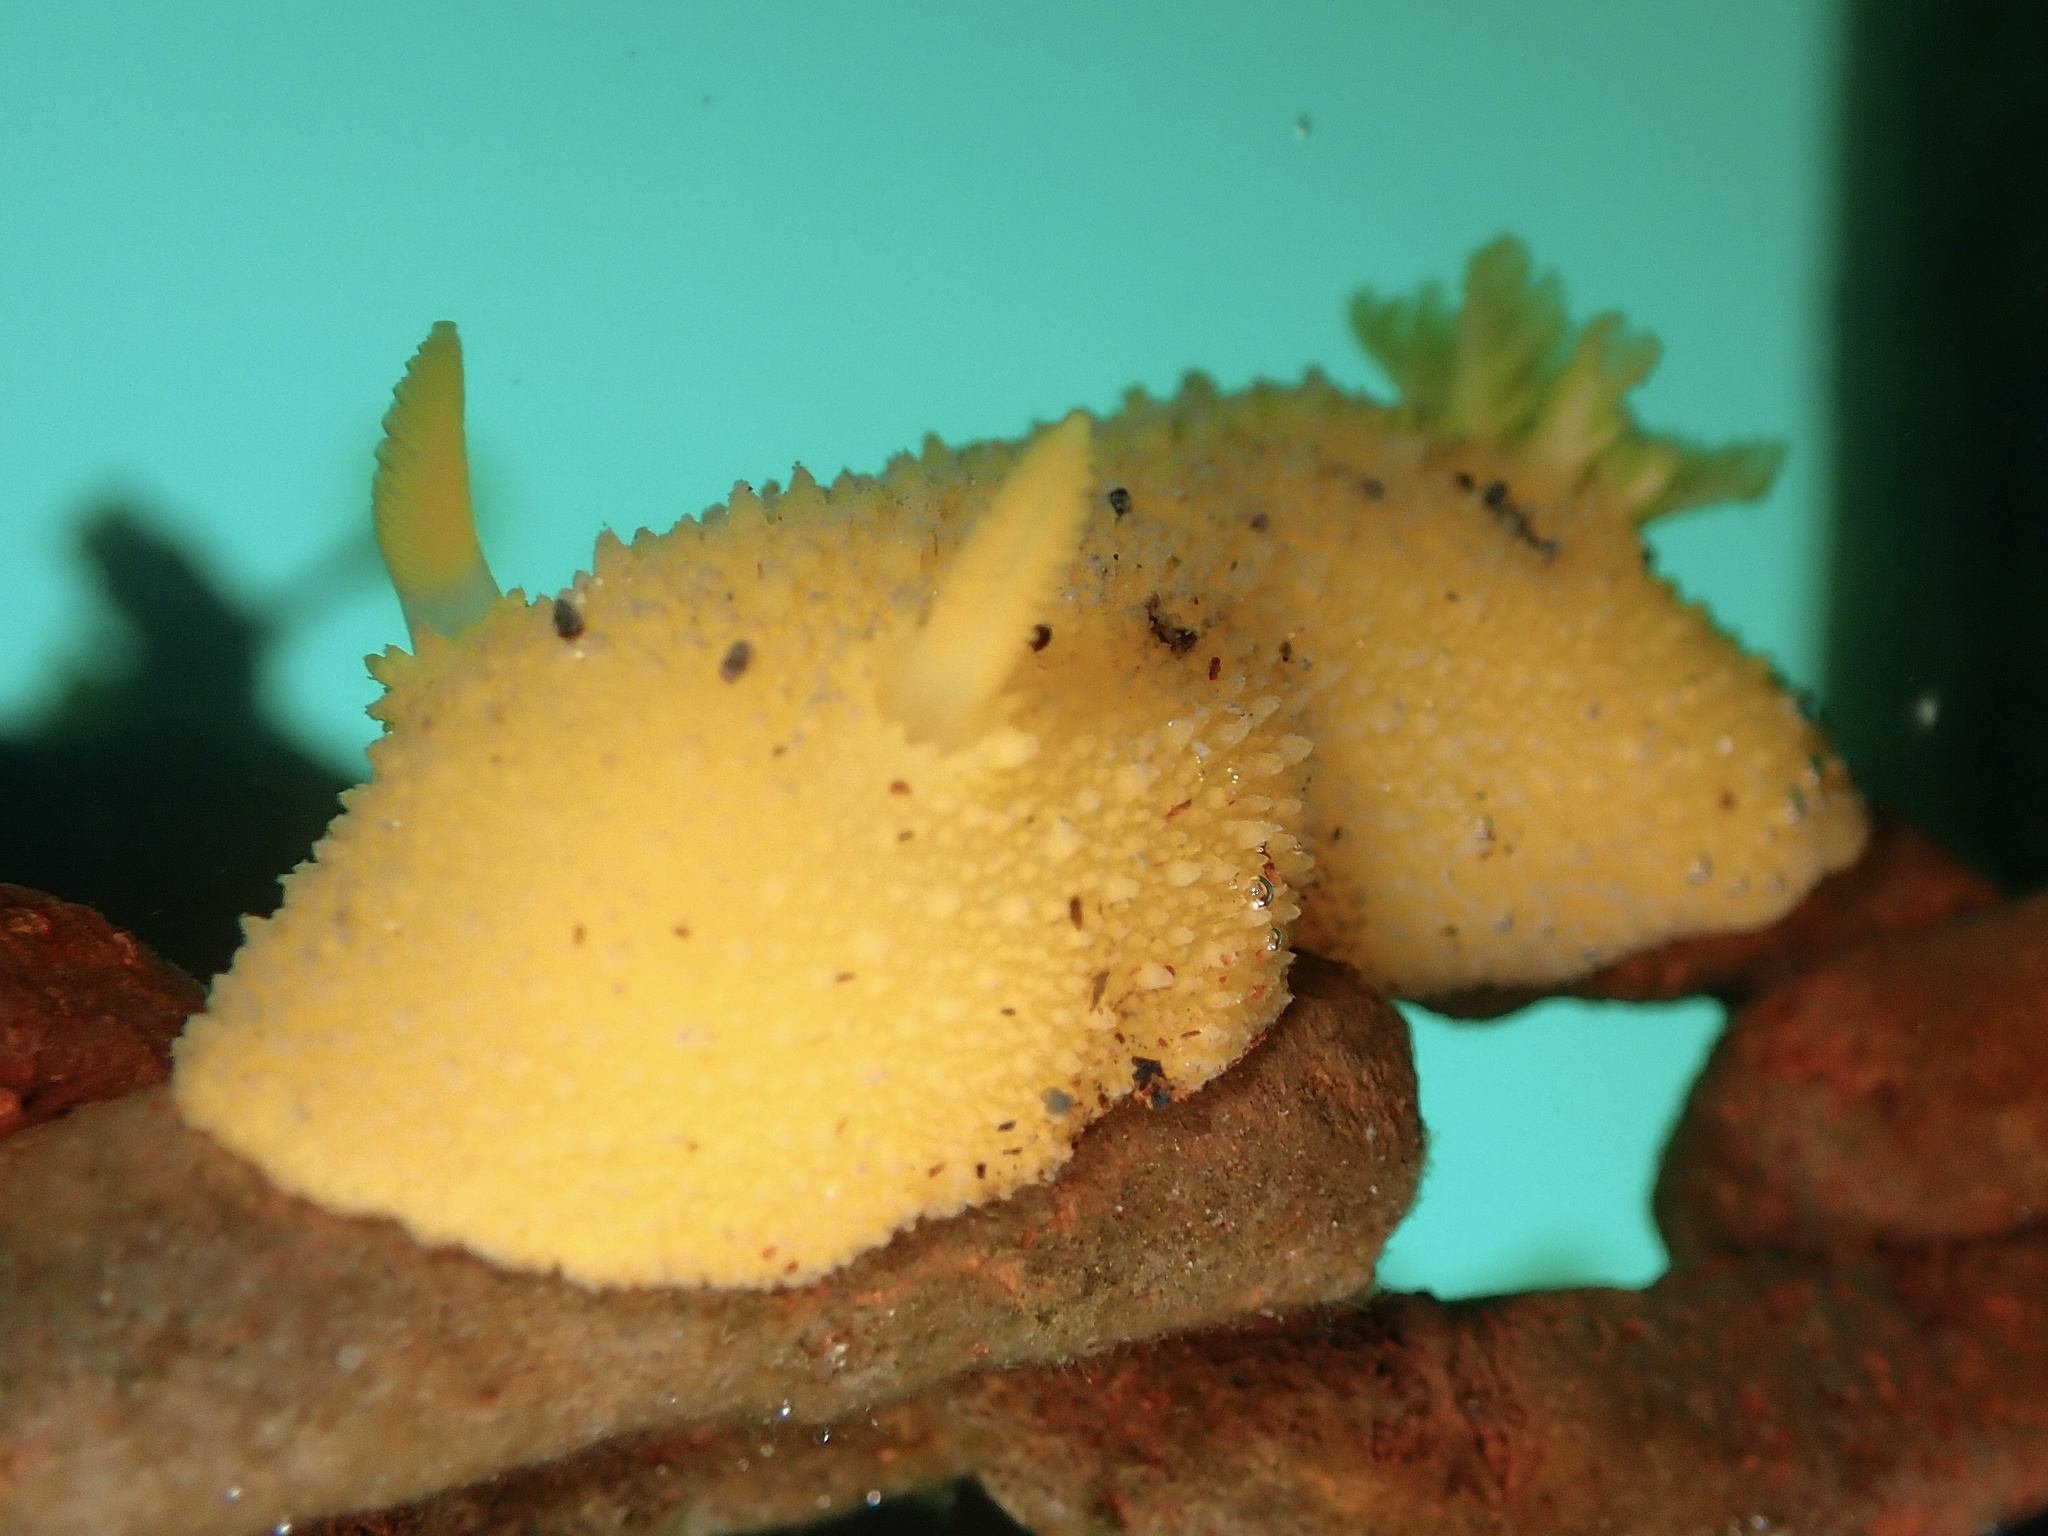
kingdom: Animalia
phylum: Mollusca
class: Gastropoda
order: Nudibranchia
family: Dorididae
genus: Doris
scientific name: Doris montereyensis
